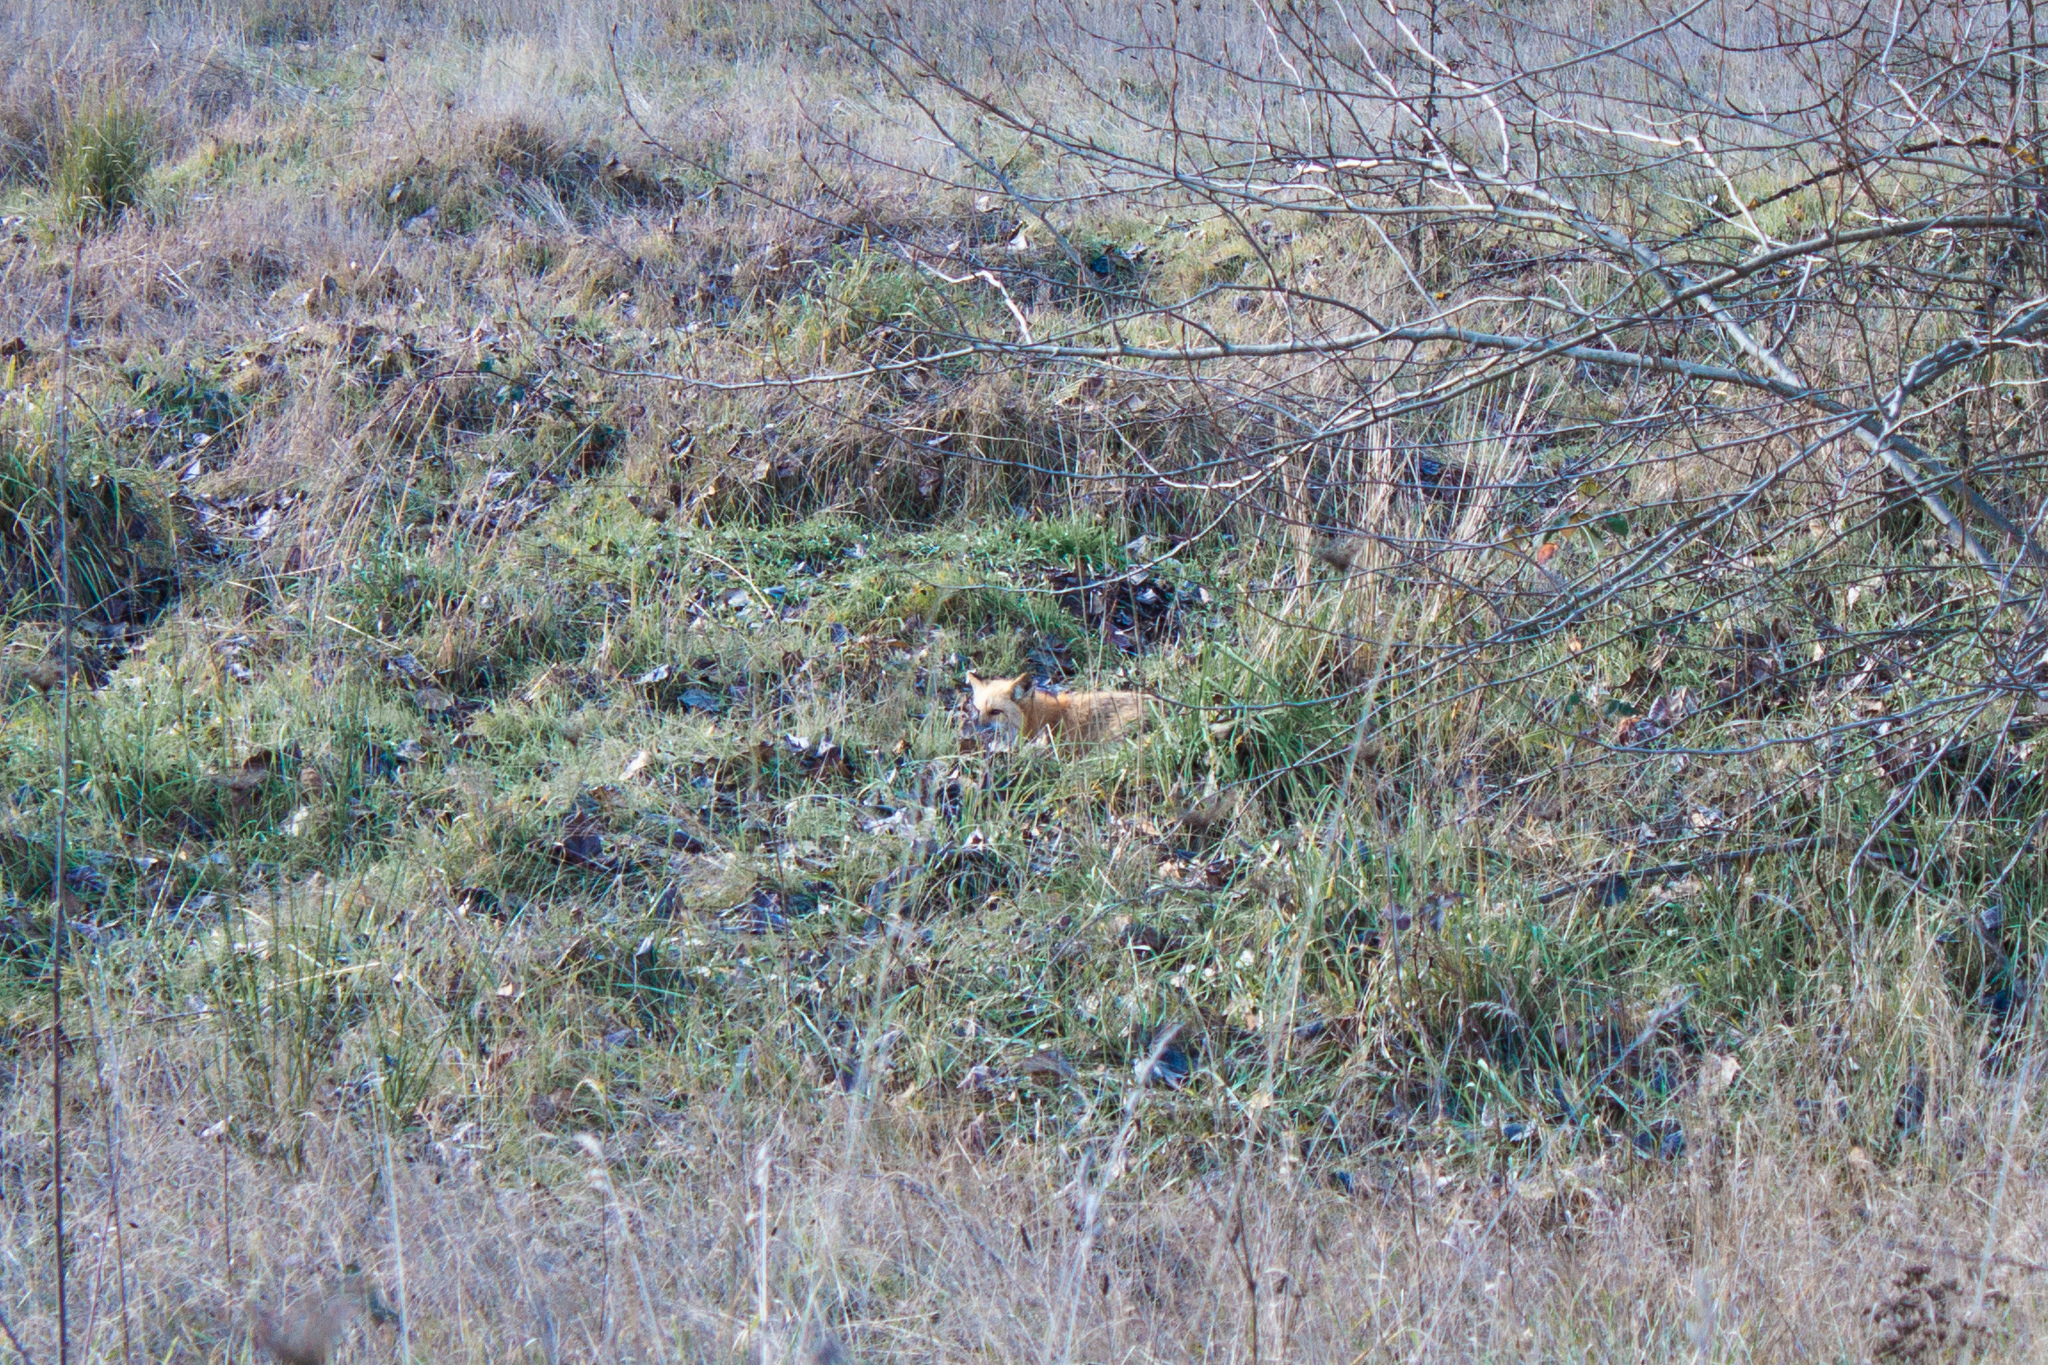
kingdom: Animalia
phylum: Chordata
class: Mammalia
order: Carnivora
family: Canidae
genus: Vulpes
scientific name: Vulpes vulpes
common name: Red fox
